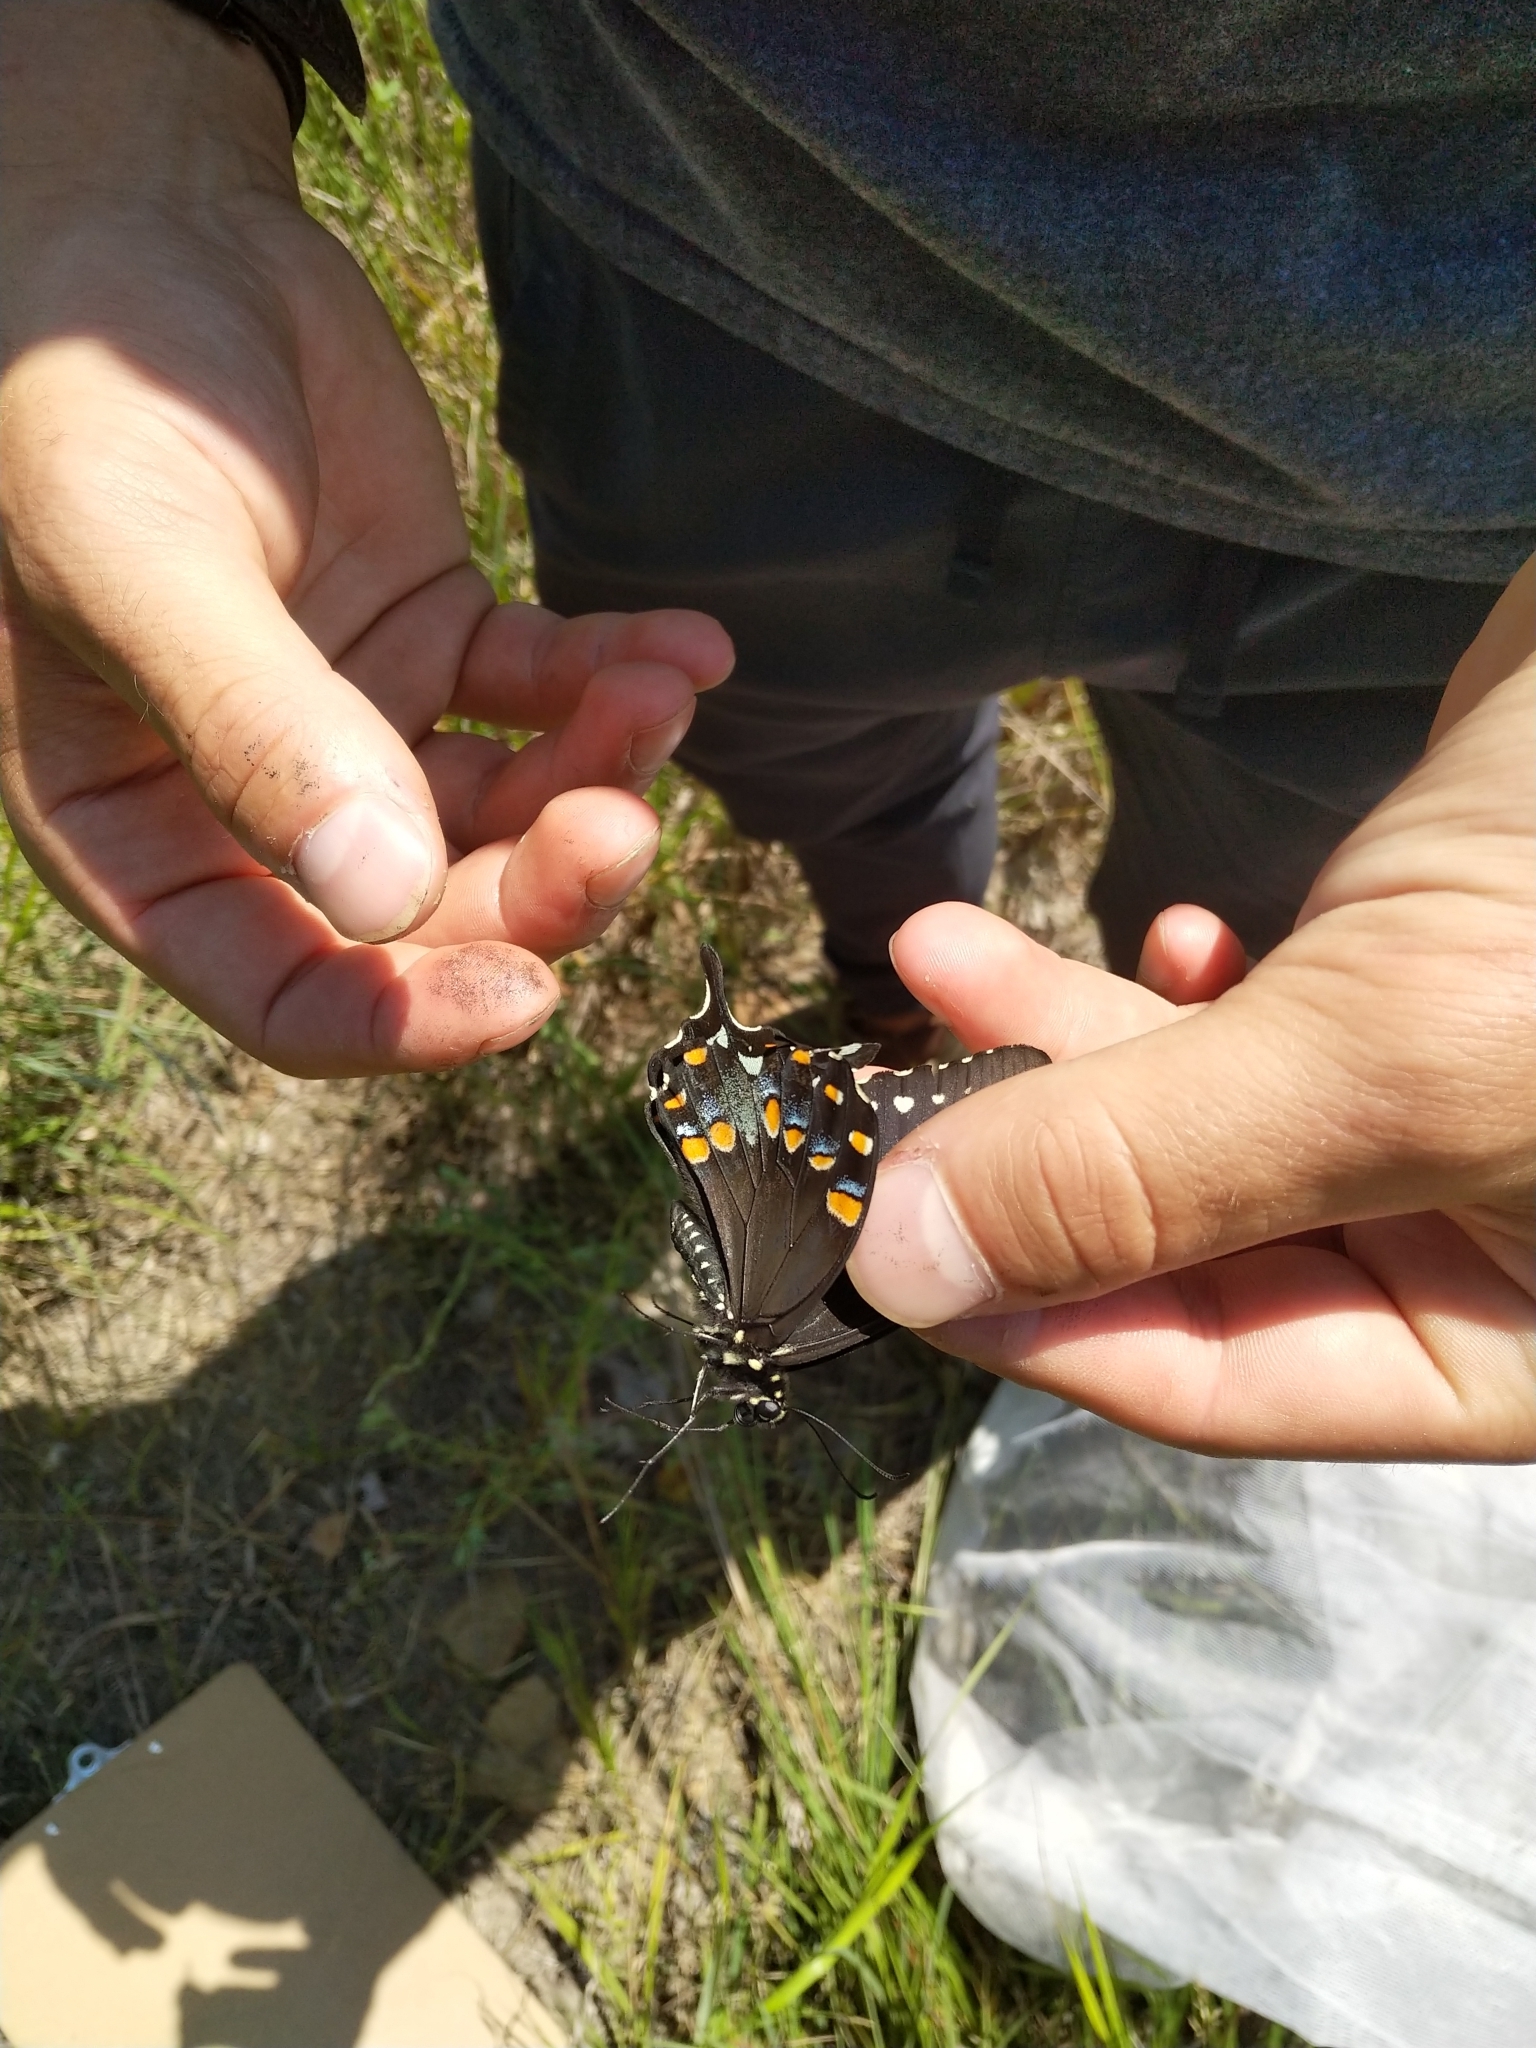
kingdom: Animalia
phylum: Arthropoda
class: Insecta
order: Lepidoptera
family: Papilionidae
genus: Papilio
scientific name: Papilio troilus
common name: Spicebush swallowtail
